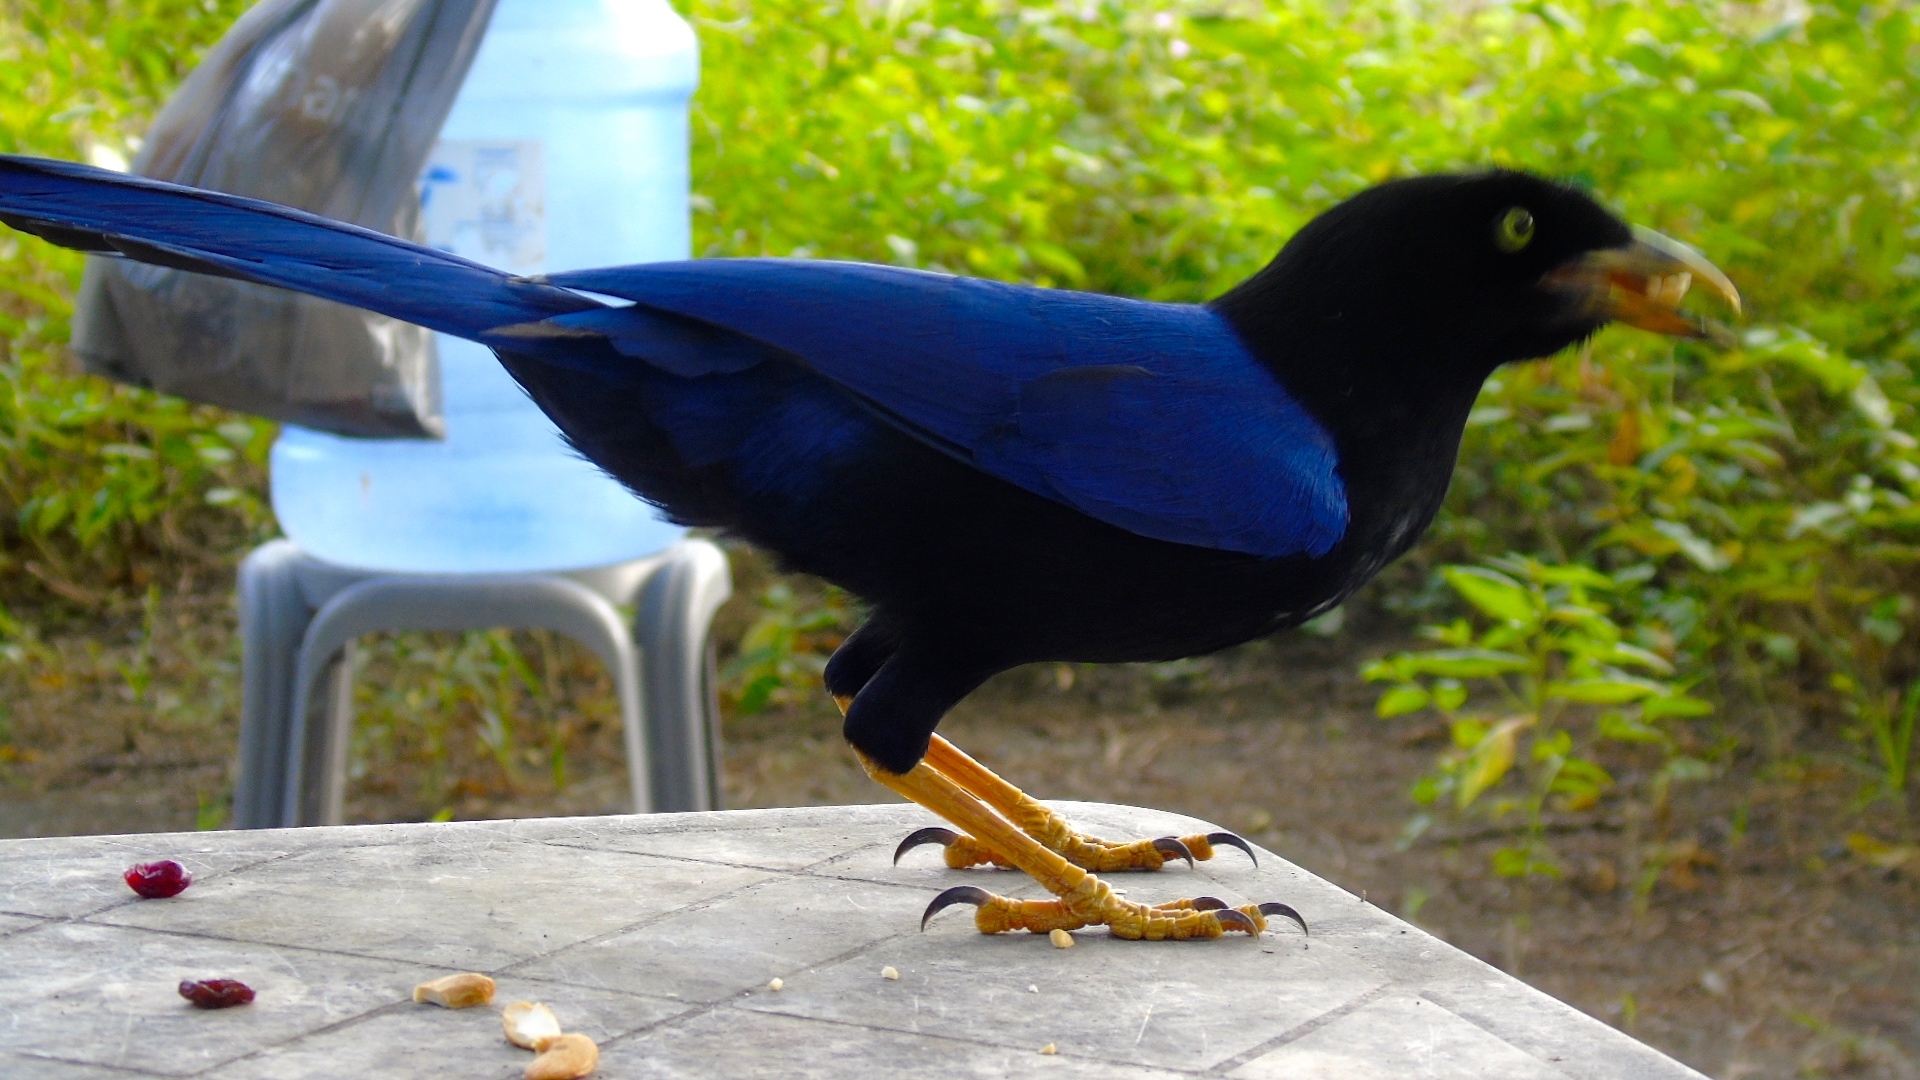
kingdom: Animalia
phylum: Chordata
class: Aves
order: Passeriformes
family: Corvidae
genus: Cyanocorax
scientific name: Cyanocorax beecheii
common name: Purplish-backed jay
